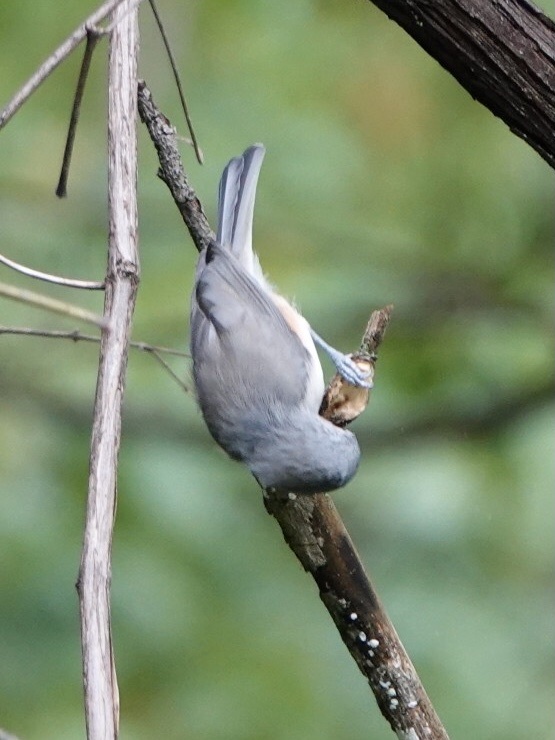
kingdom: Animalia
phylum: Chordata
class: Aves
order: Passeriformes
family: Paridae
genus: Baeolophus
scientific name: Baeolophus bicolor
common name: Tufted titmouse
